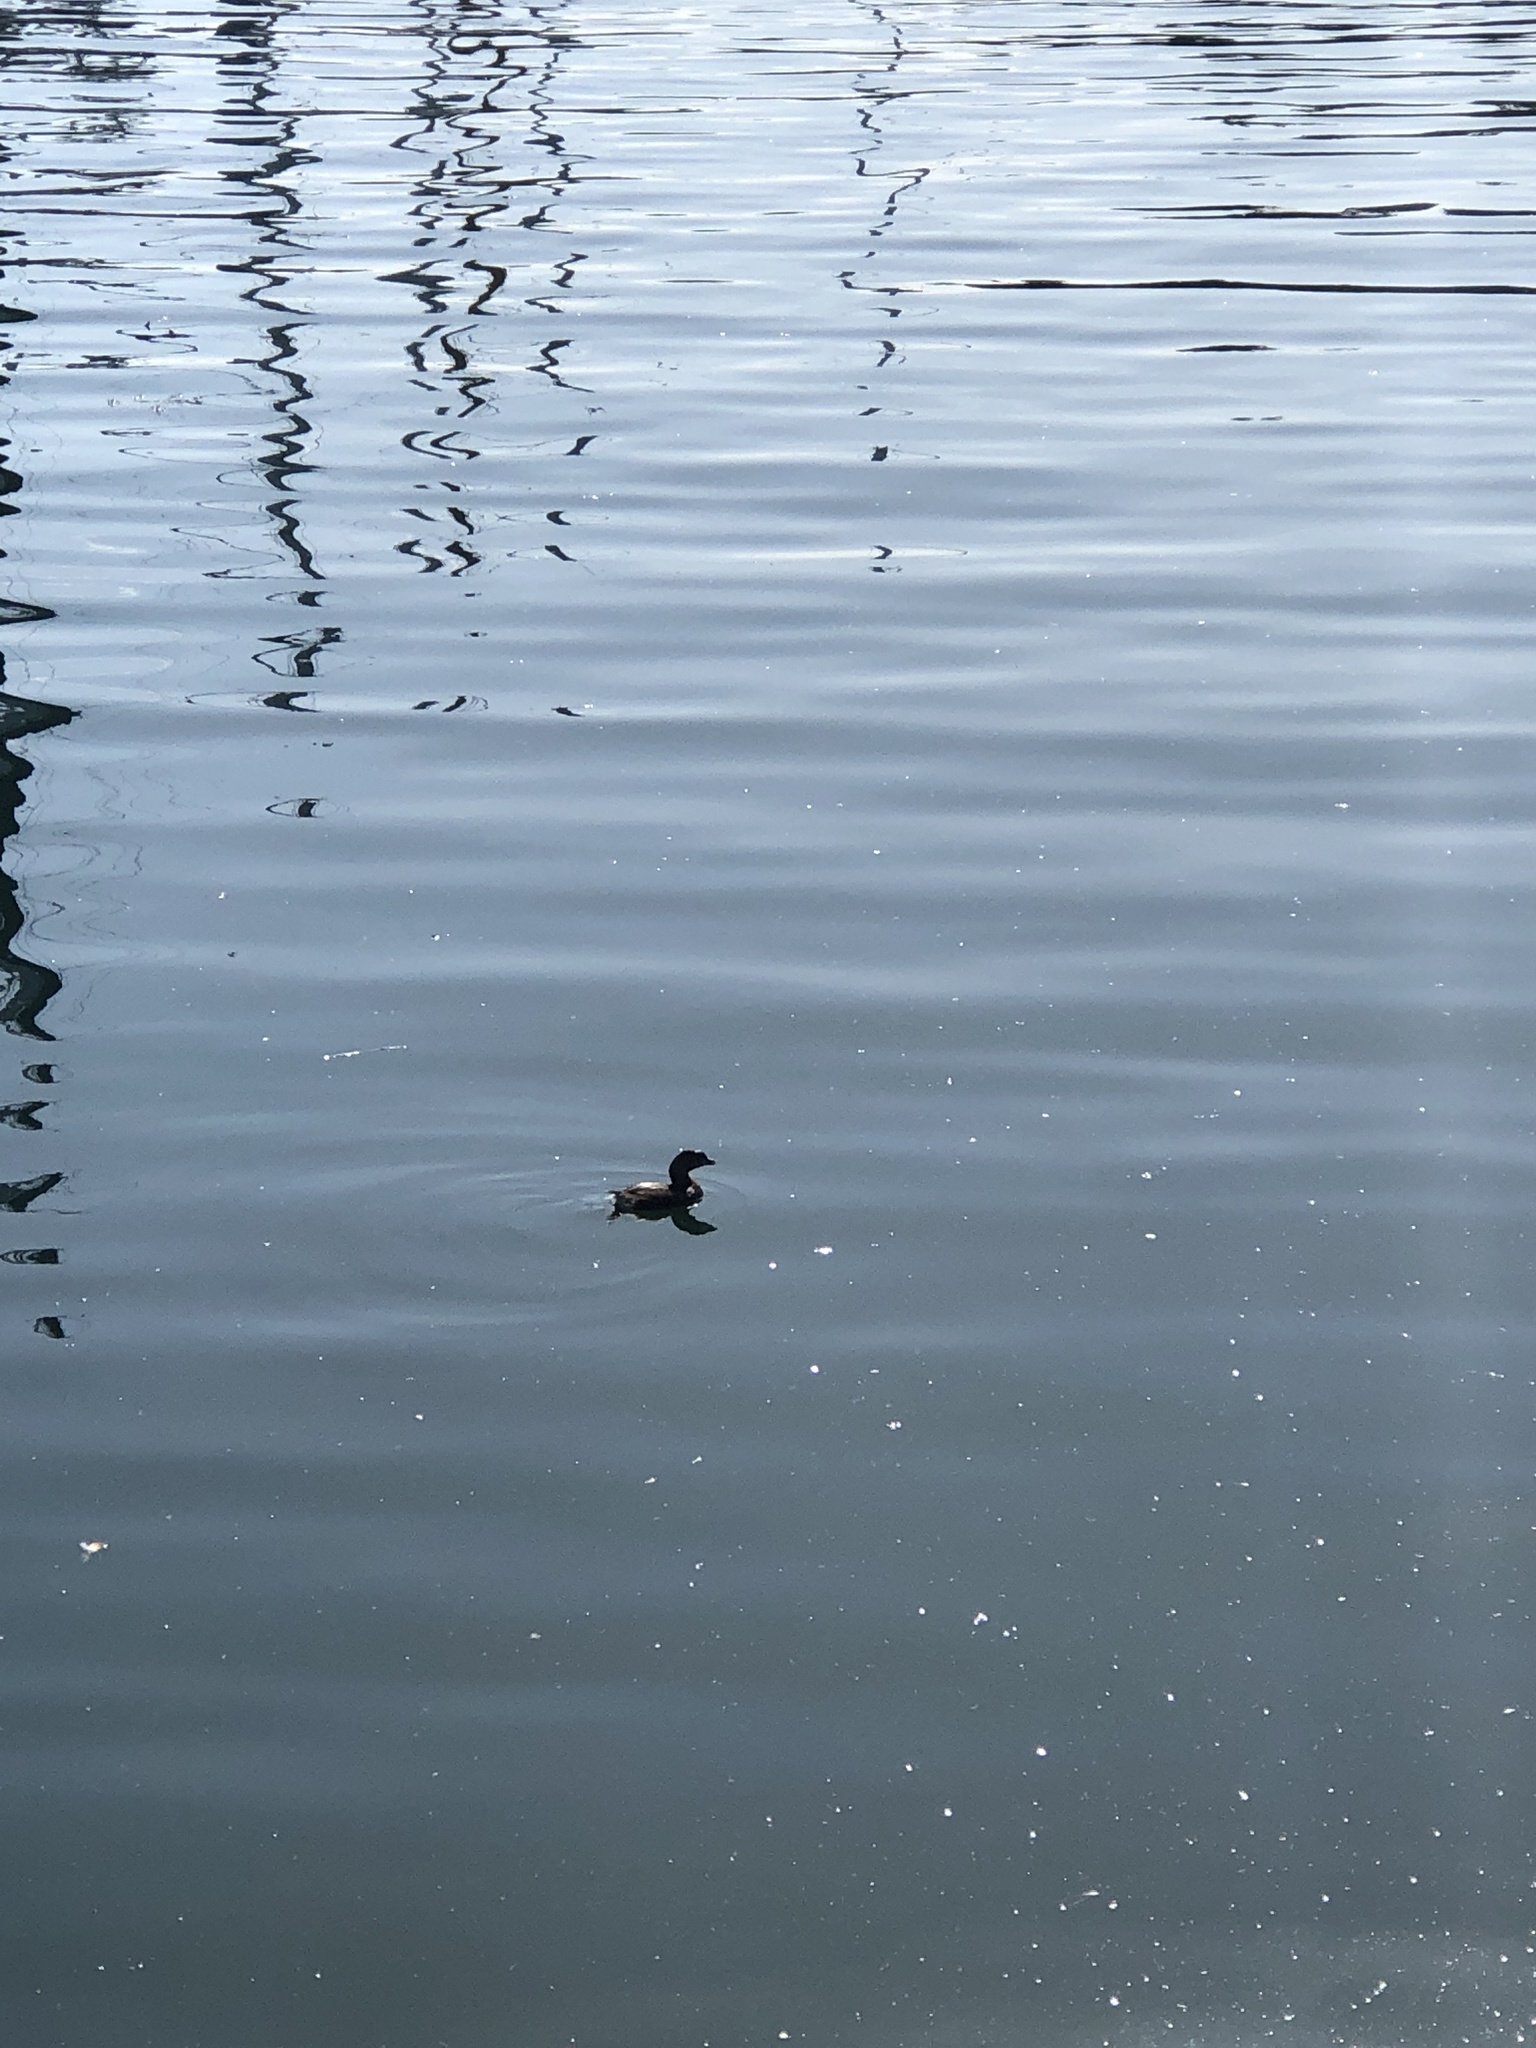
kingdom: Animalia
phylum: Chordata
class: Aves
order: Podicipediformes
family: Podicipedidae
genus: Podilymbus
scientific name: Podilymbus podiceps
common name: Pied-billed grebe
